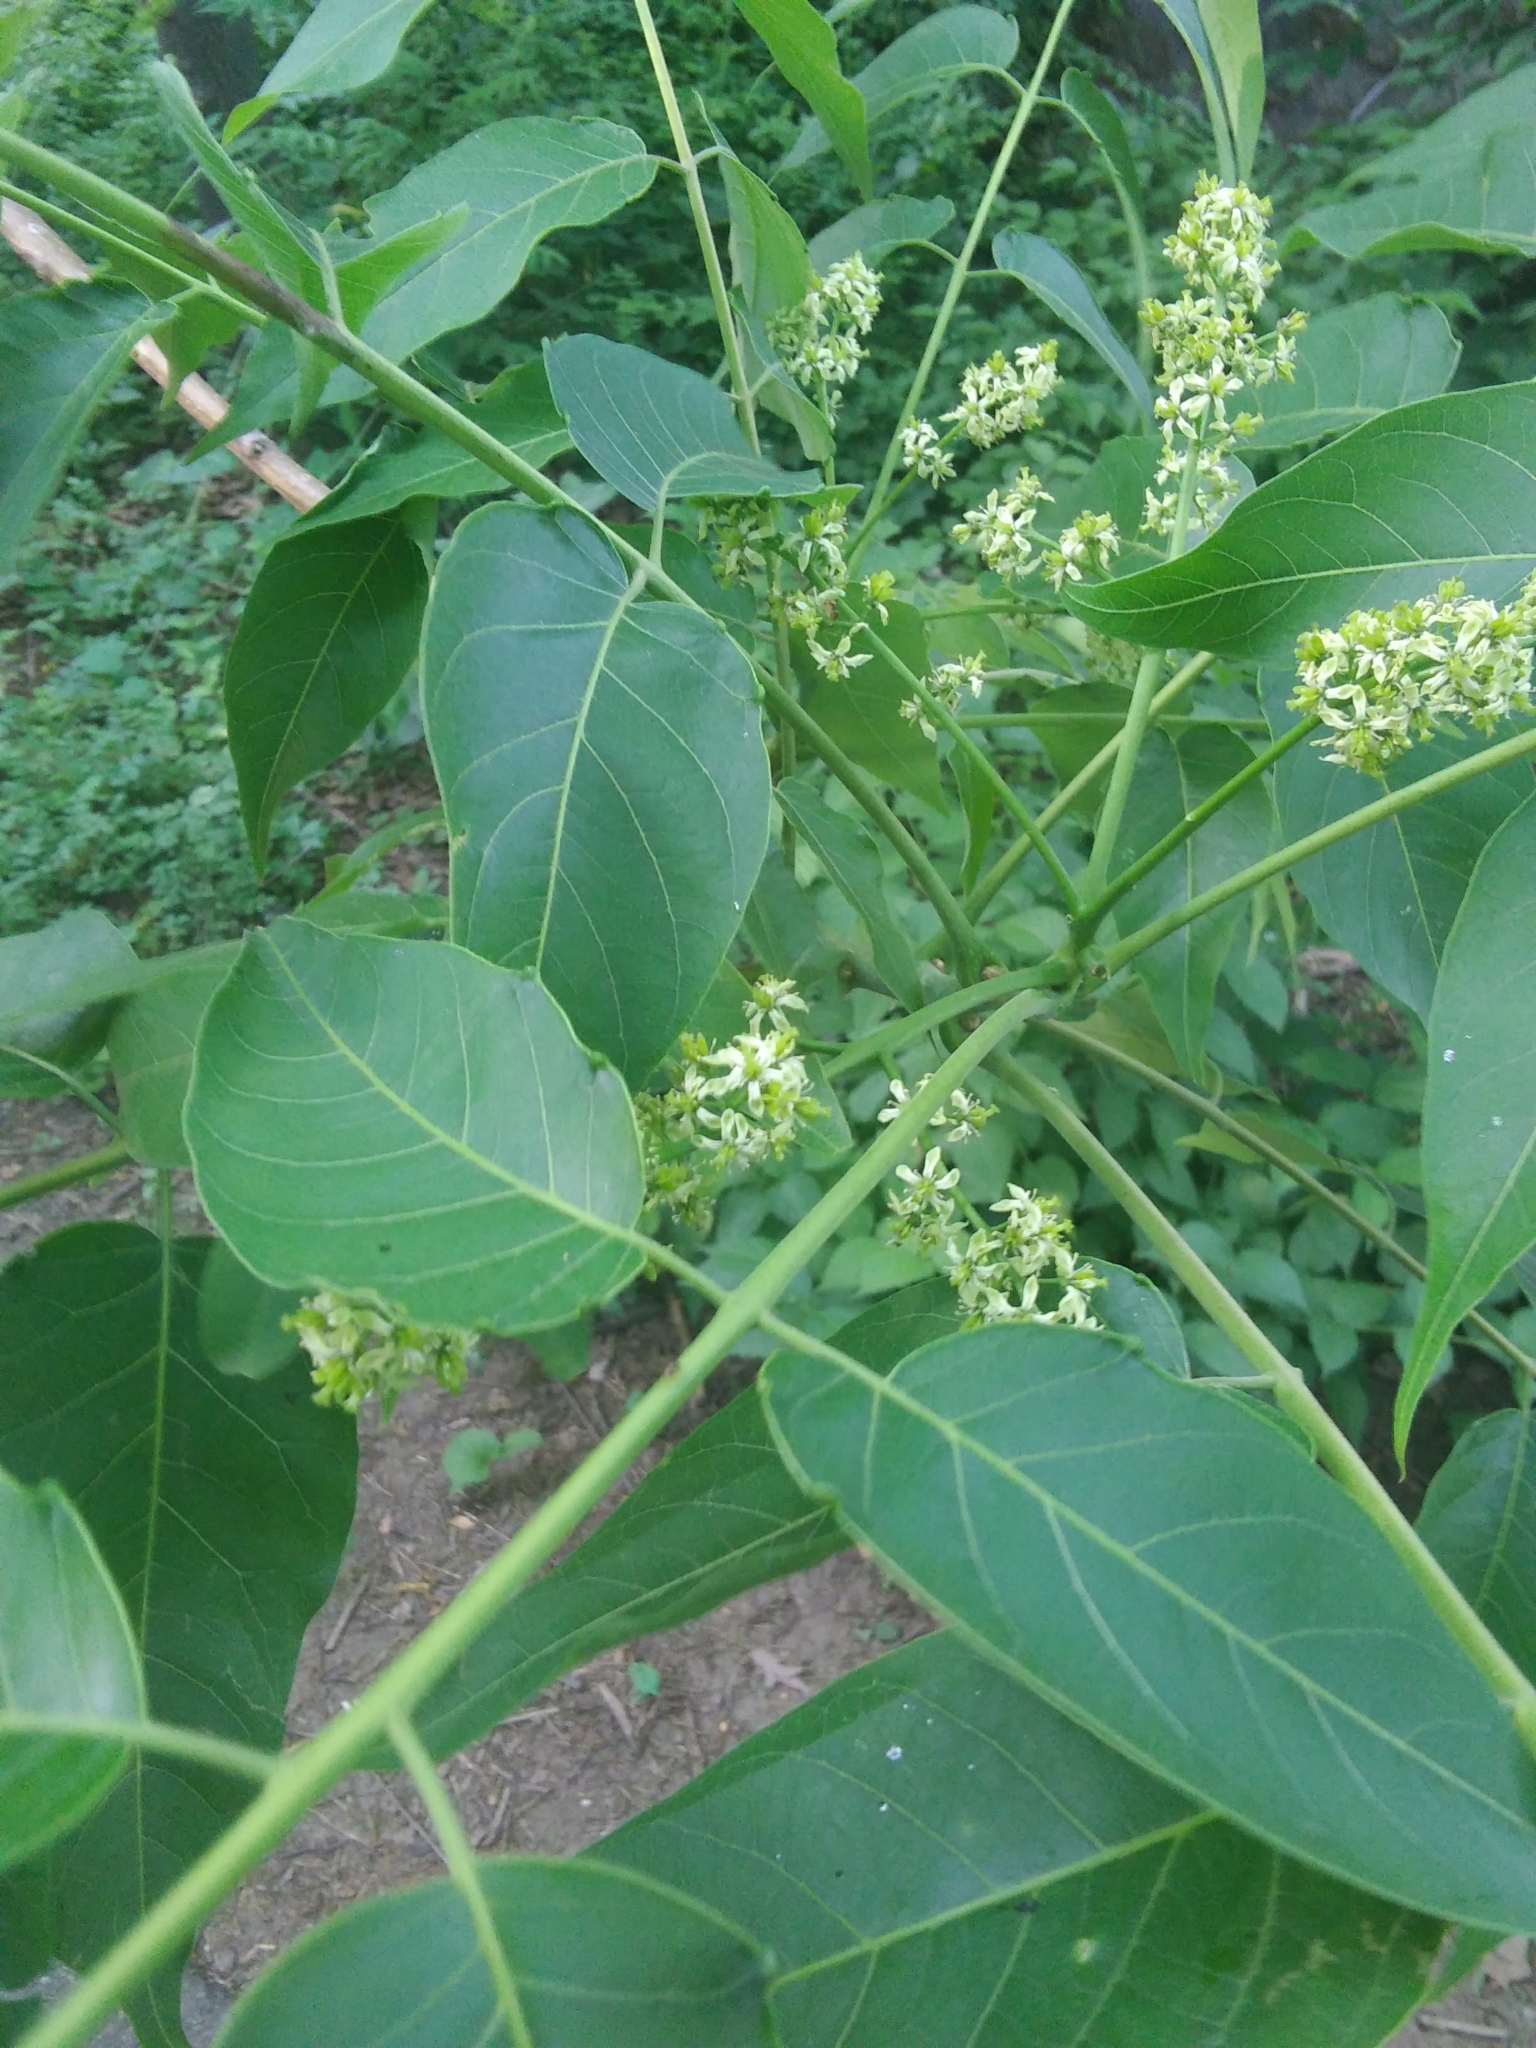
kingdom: Plantae
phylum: Tracheophyta
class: Magnoliopsida
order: Sapindales
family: Simaroubaceae
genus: Ailanthus
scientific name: Ailanthus altissima
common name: Tree-of-heaven
